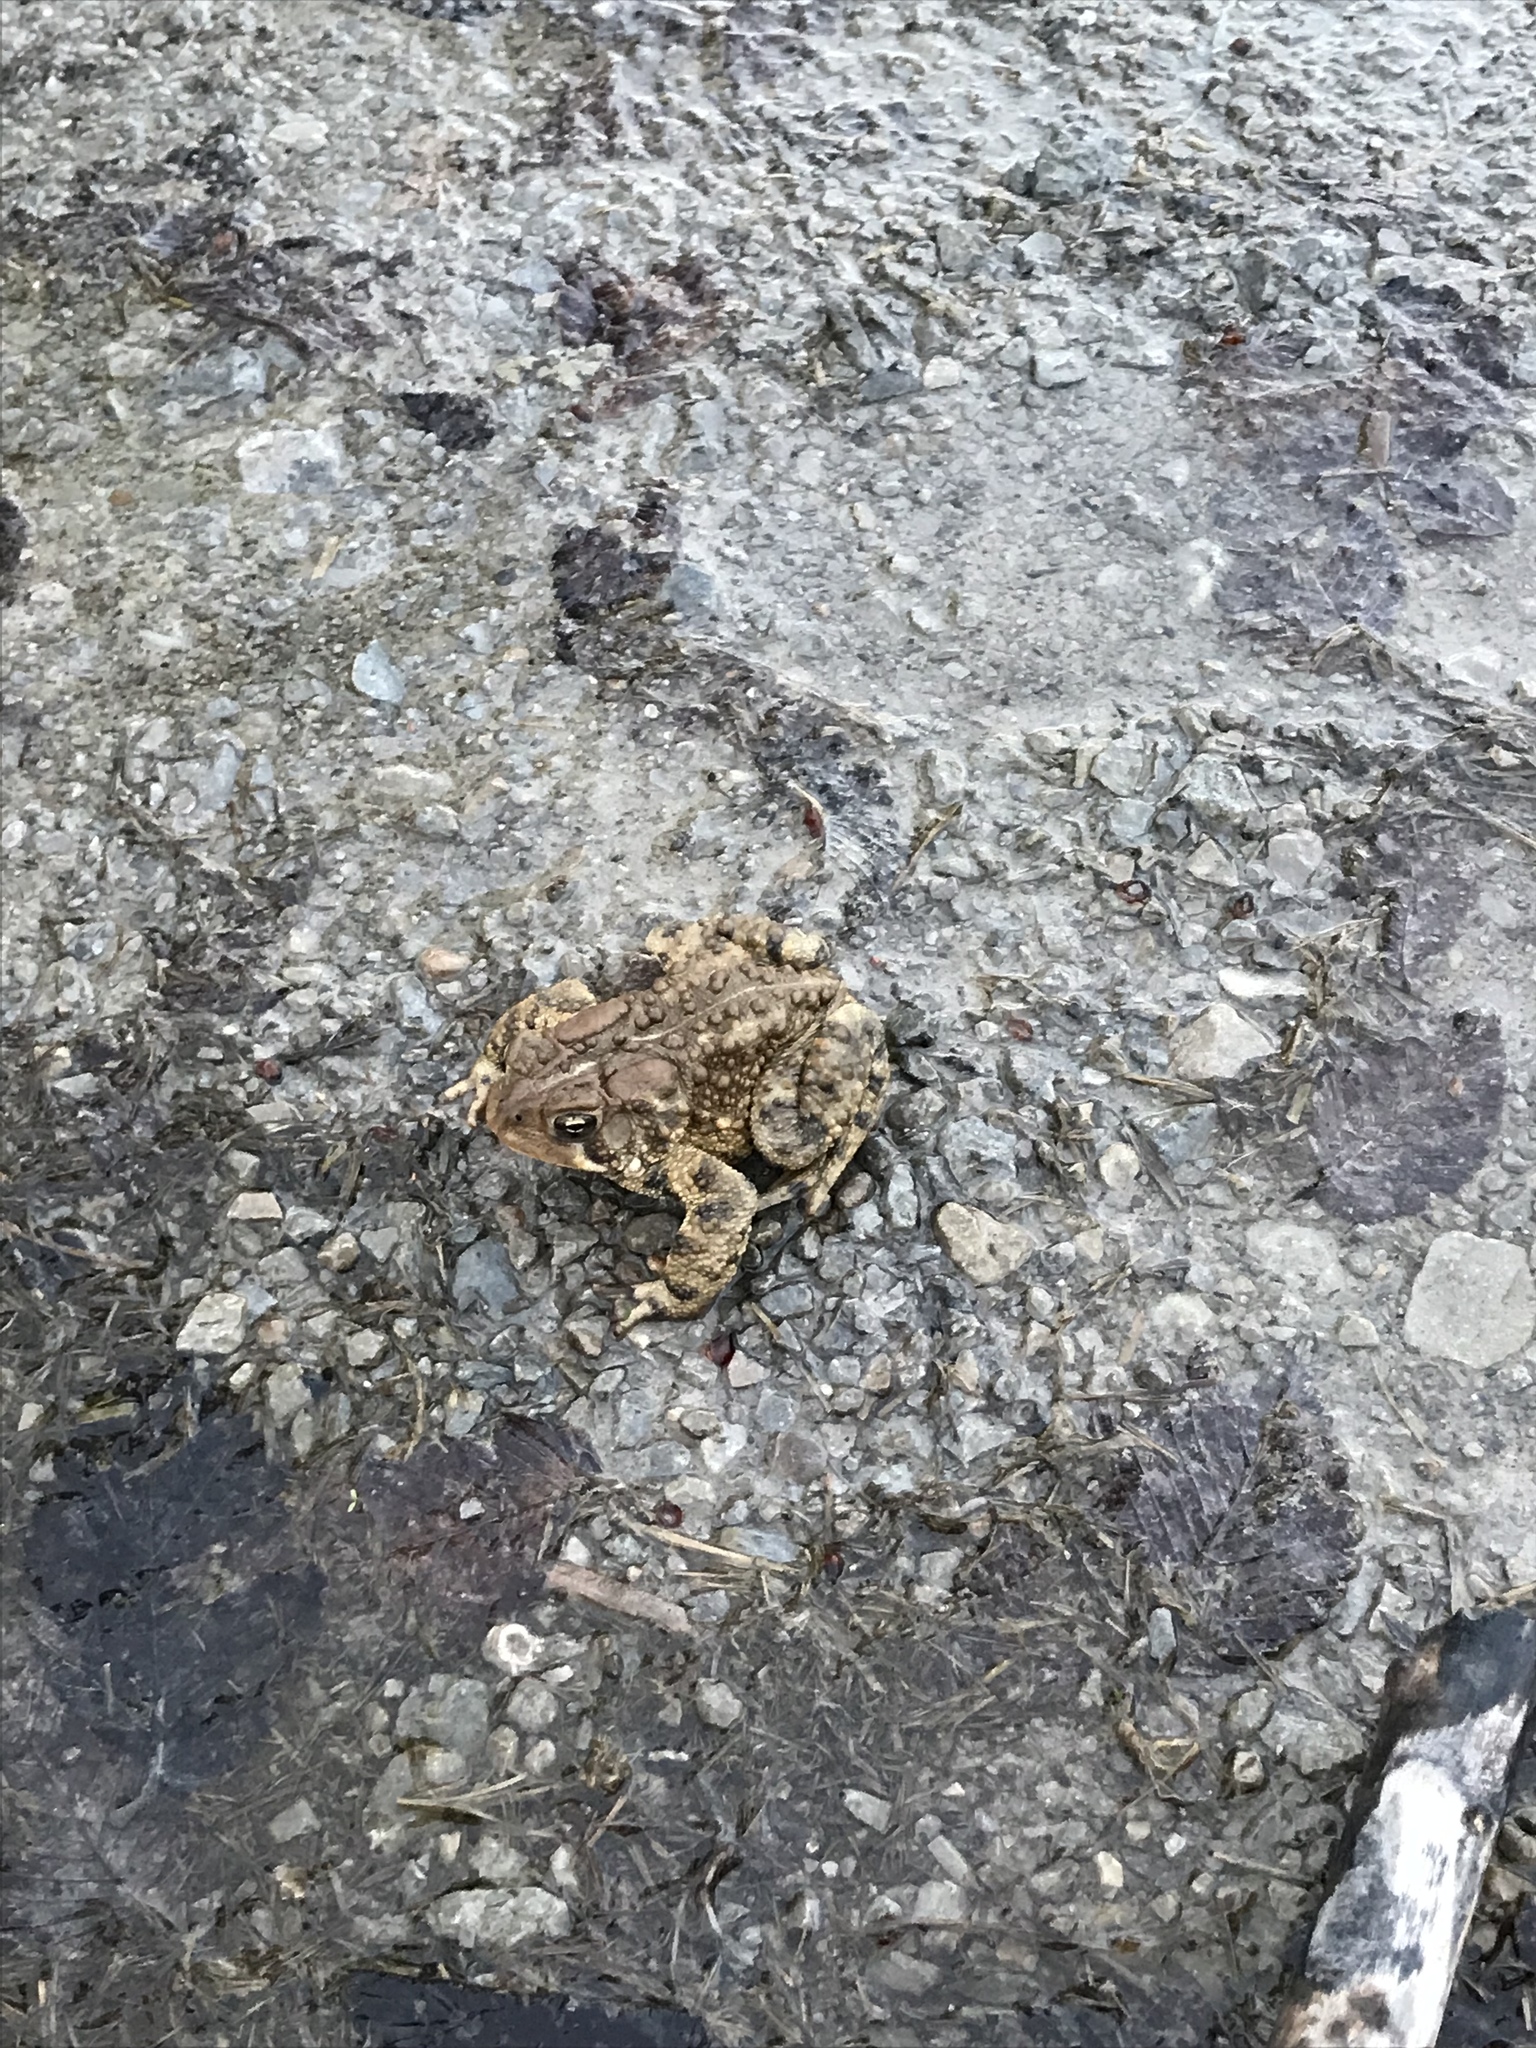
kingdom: Animalia
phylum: Chordata
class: Amphibia
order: Anura
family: Bufonidae
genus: Anaxyrus
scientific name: Anaxyrus americanus
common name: American toad
